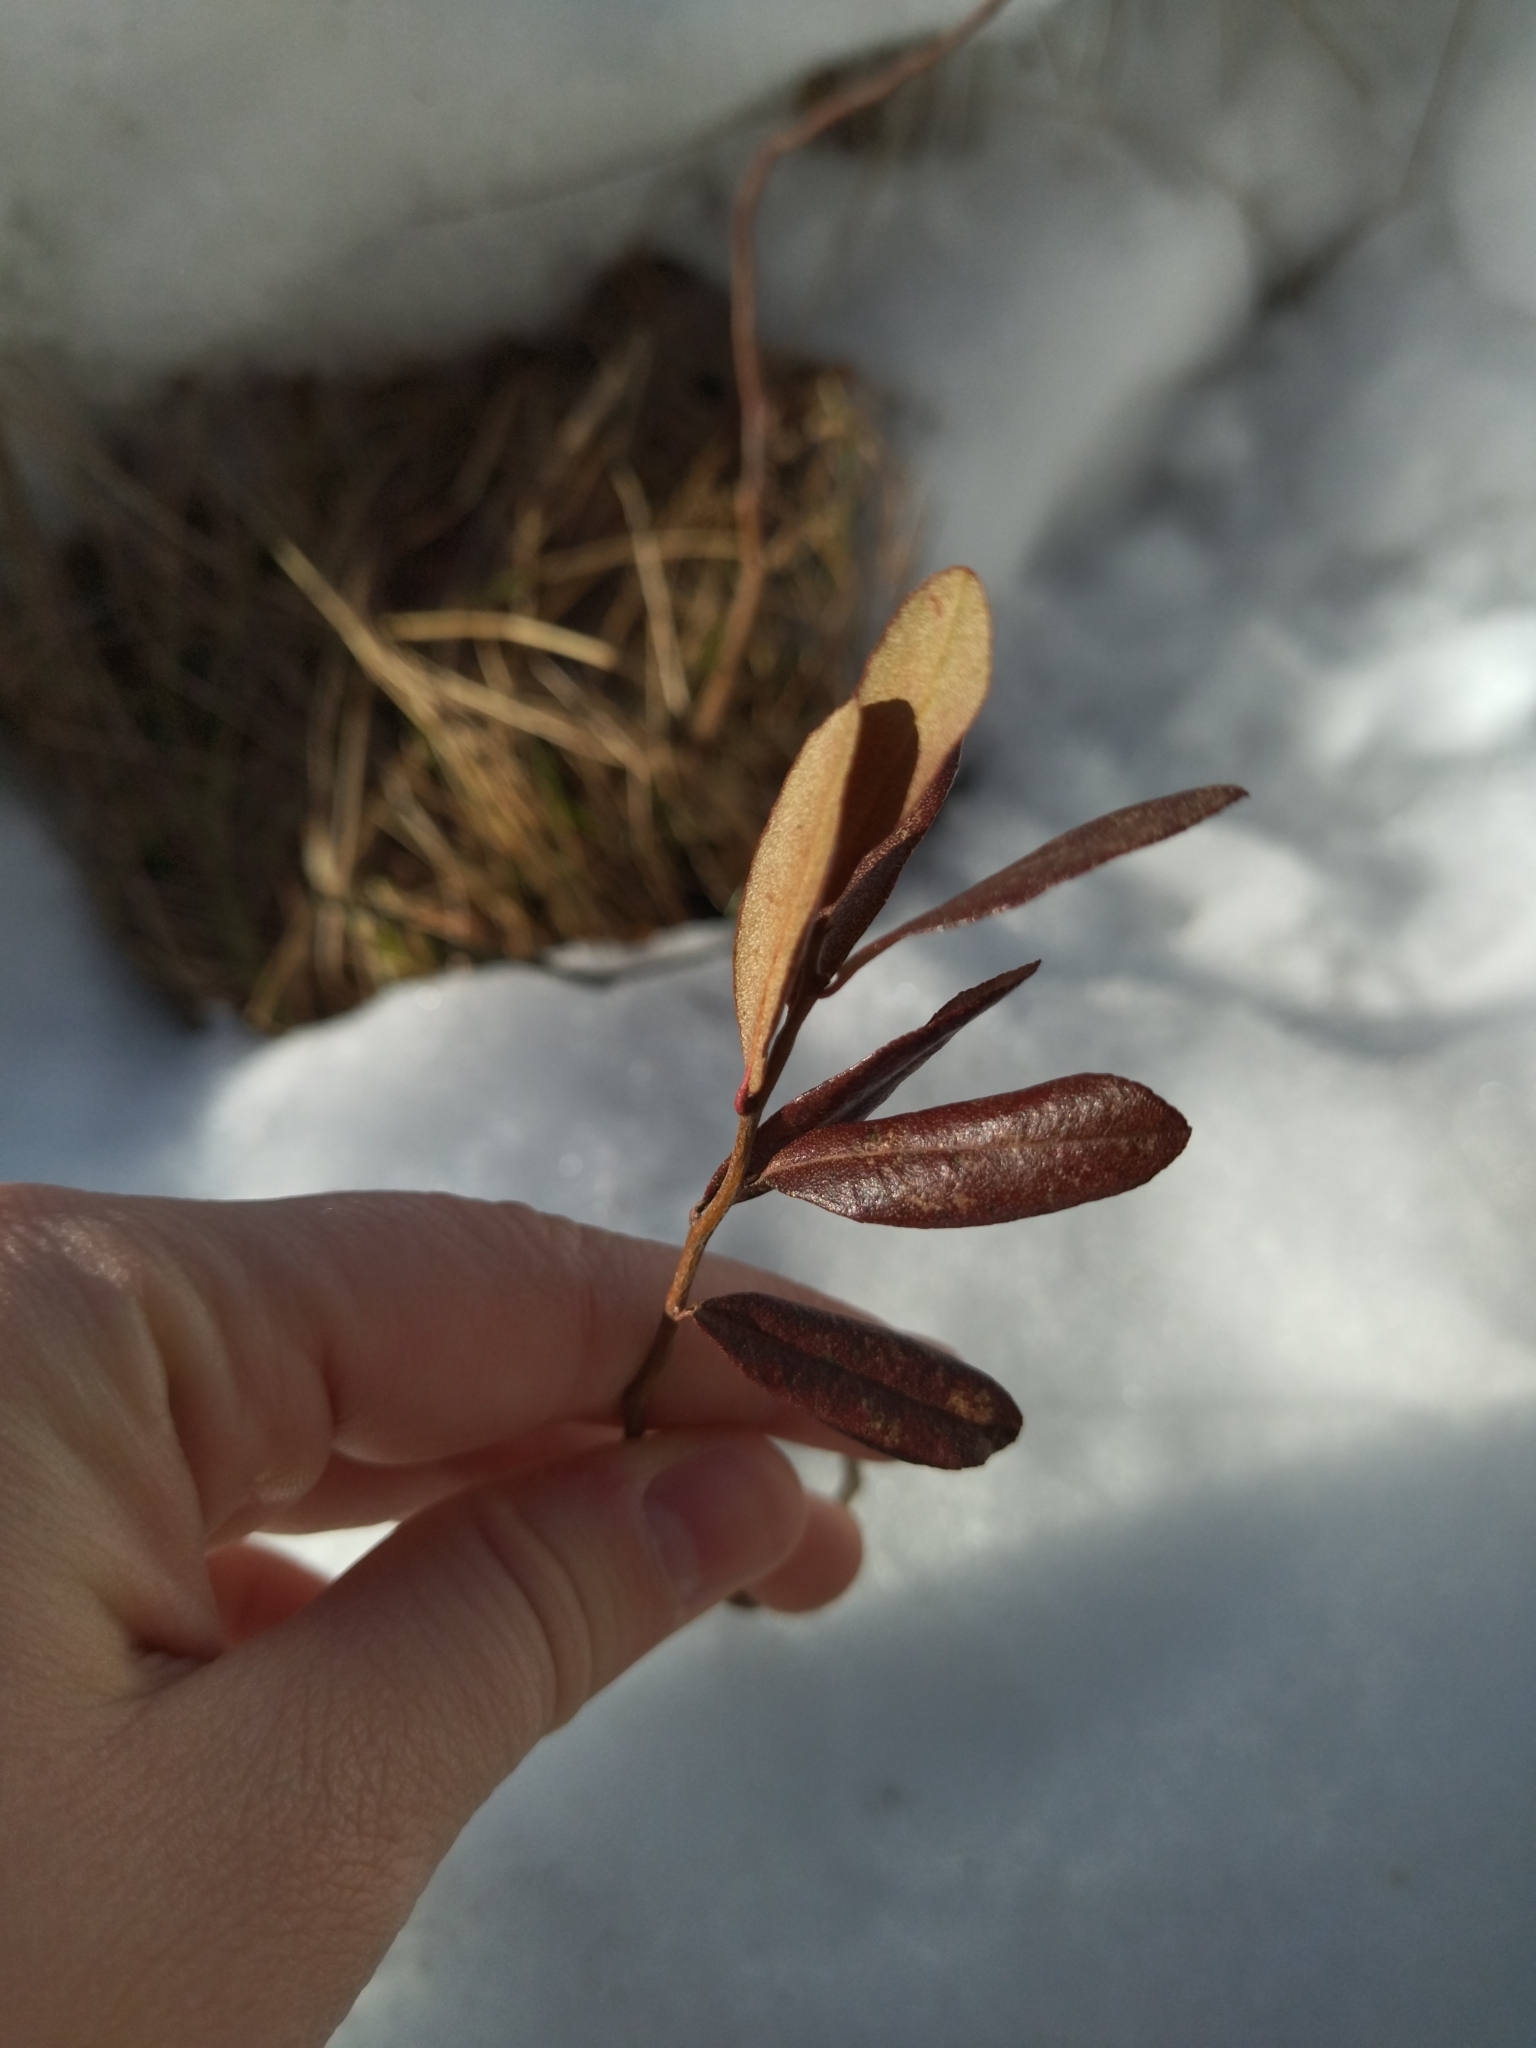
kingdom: Plantae
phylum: Tracheophyta
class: Magnoliopsida
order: Ericales
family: Ericaceae
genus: Chamaedaphne
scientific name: Chamaedaphne calyculata
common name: Leatherleaf
